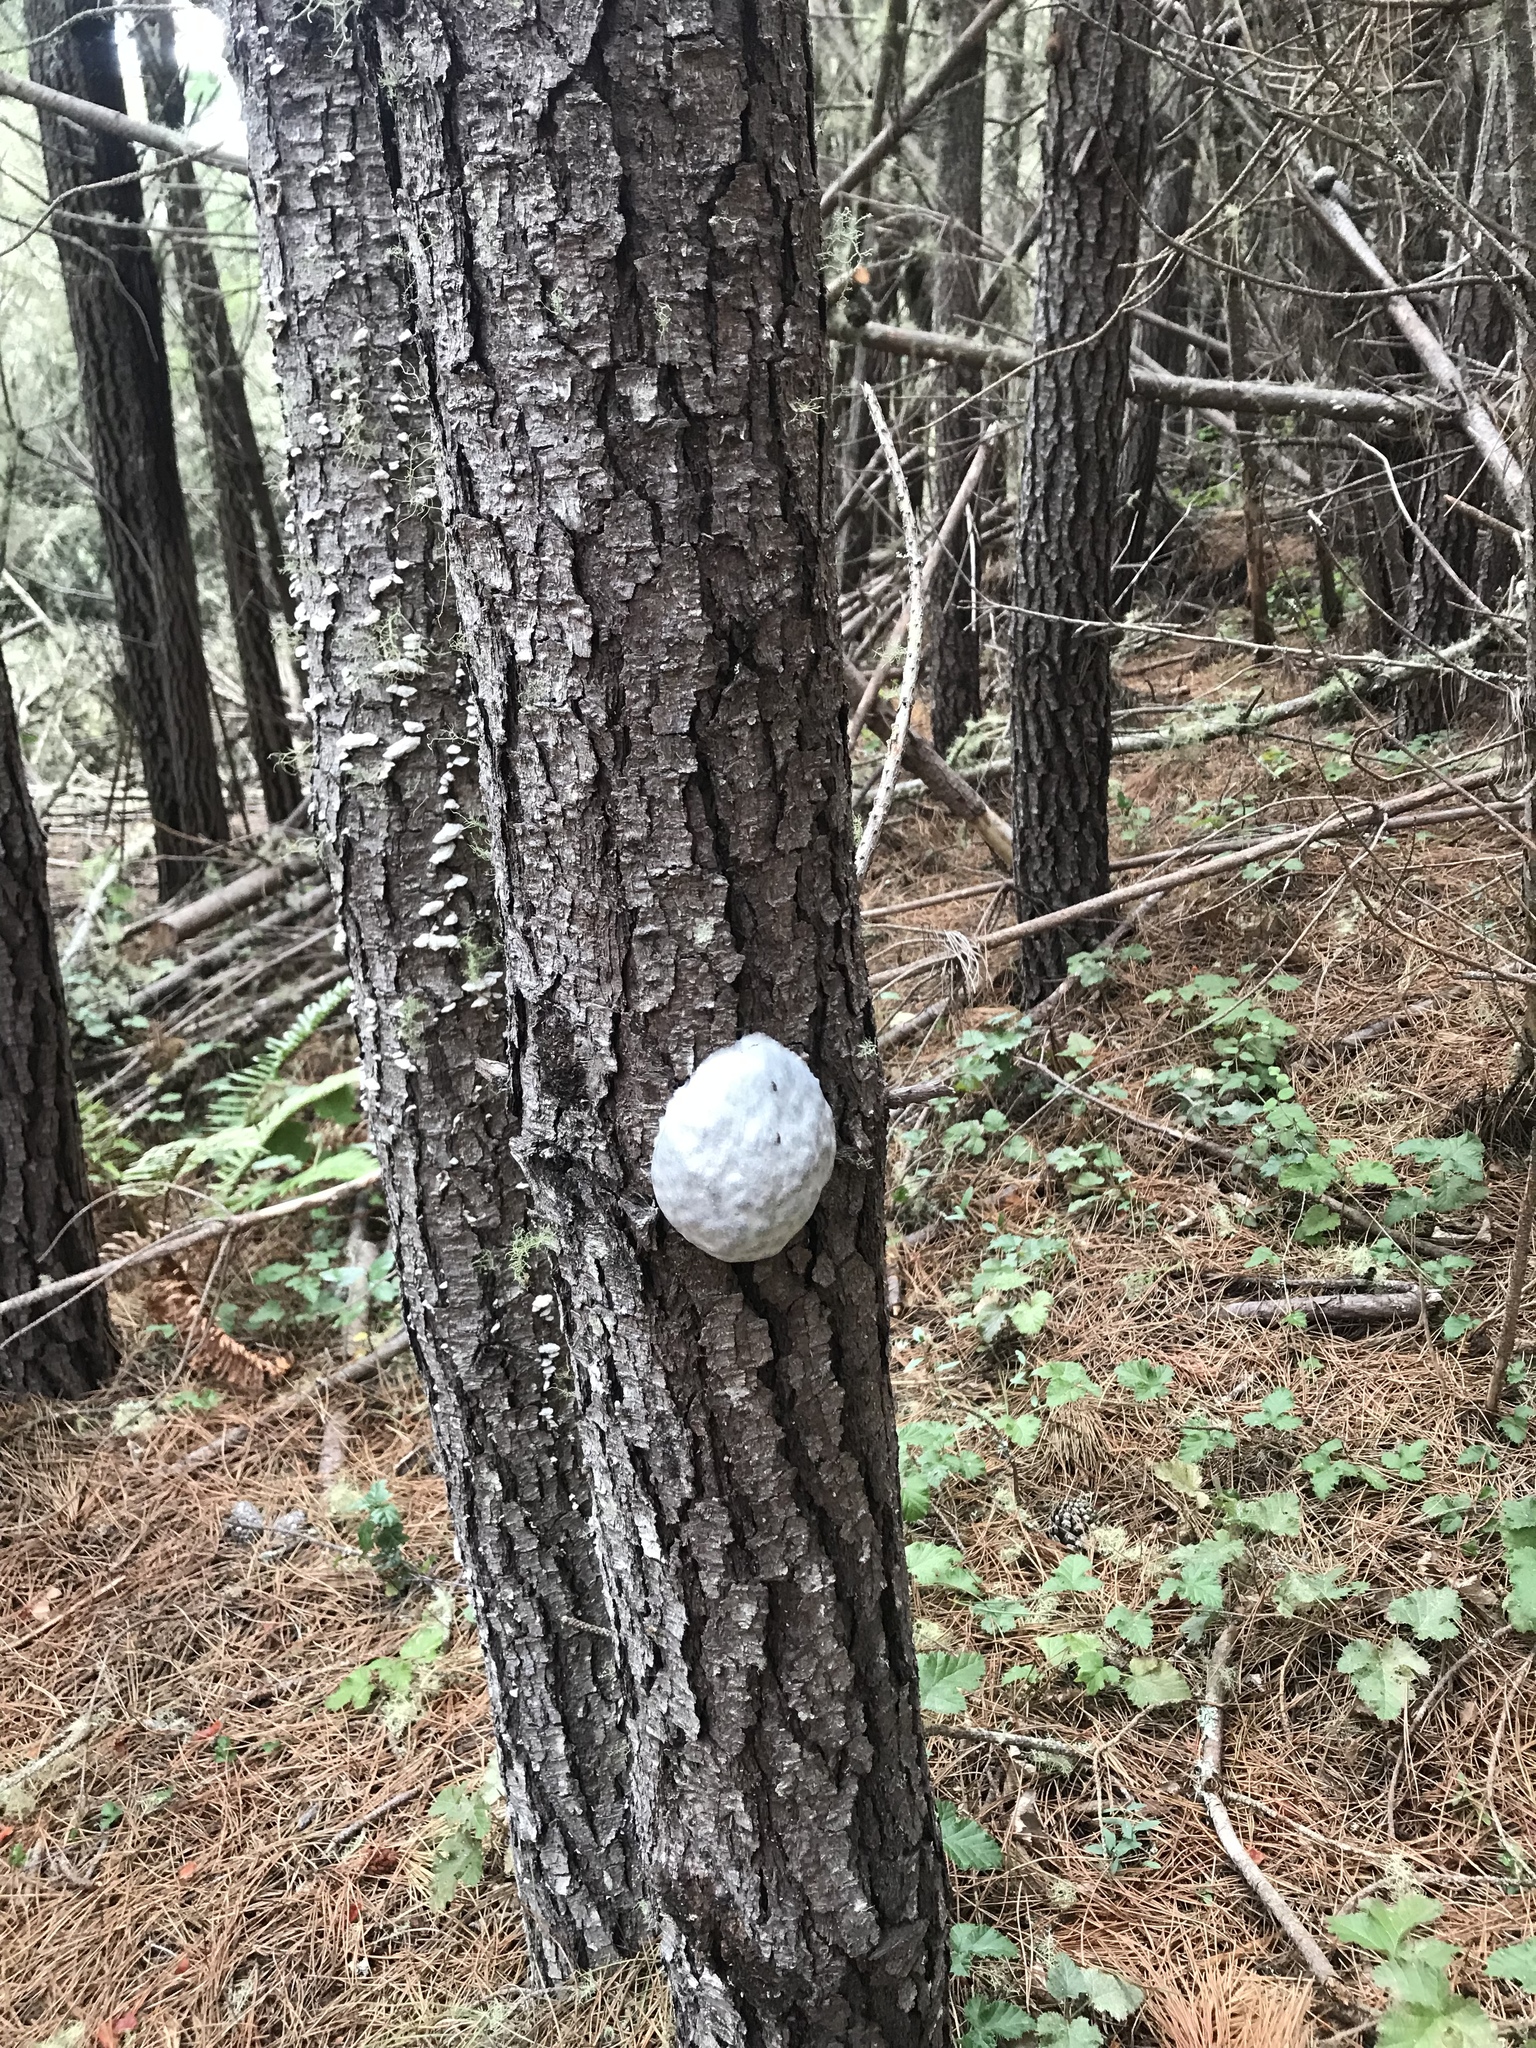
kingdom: Protozoa
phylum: Mycetozoa
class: Myxomycetes
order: Cribrariales
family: Tubiferaceae
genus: Reticularia
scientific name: Reticularia lycoperdon
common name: False puffball
